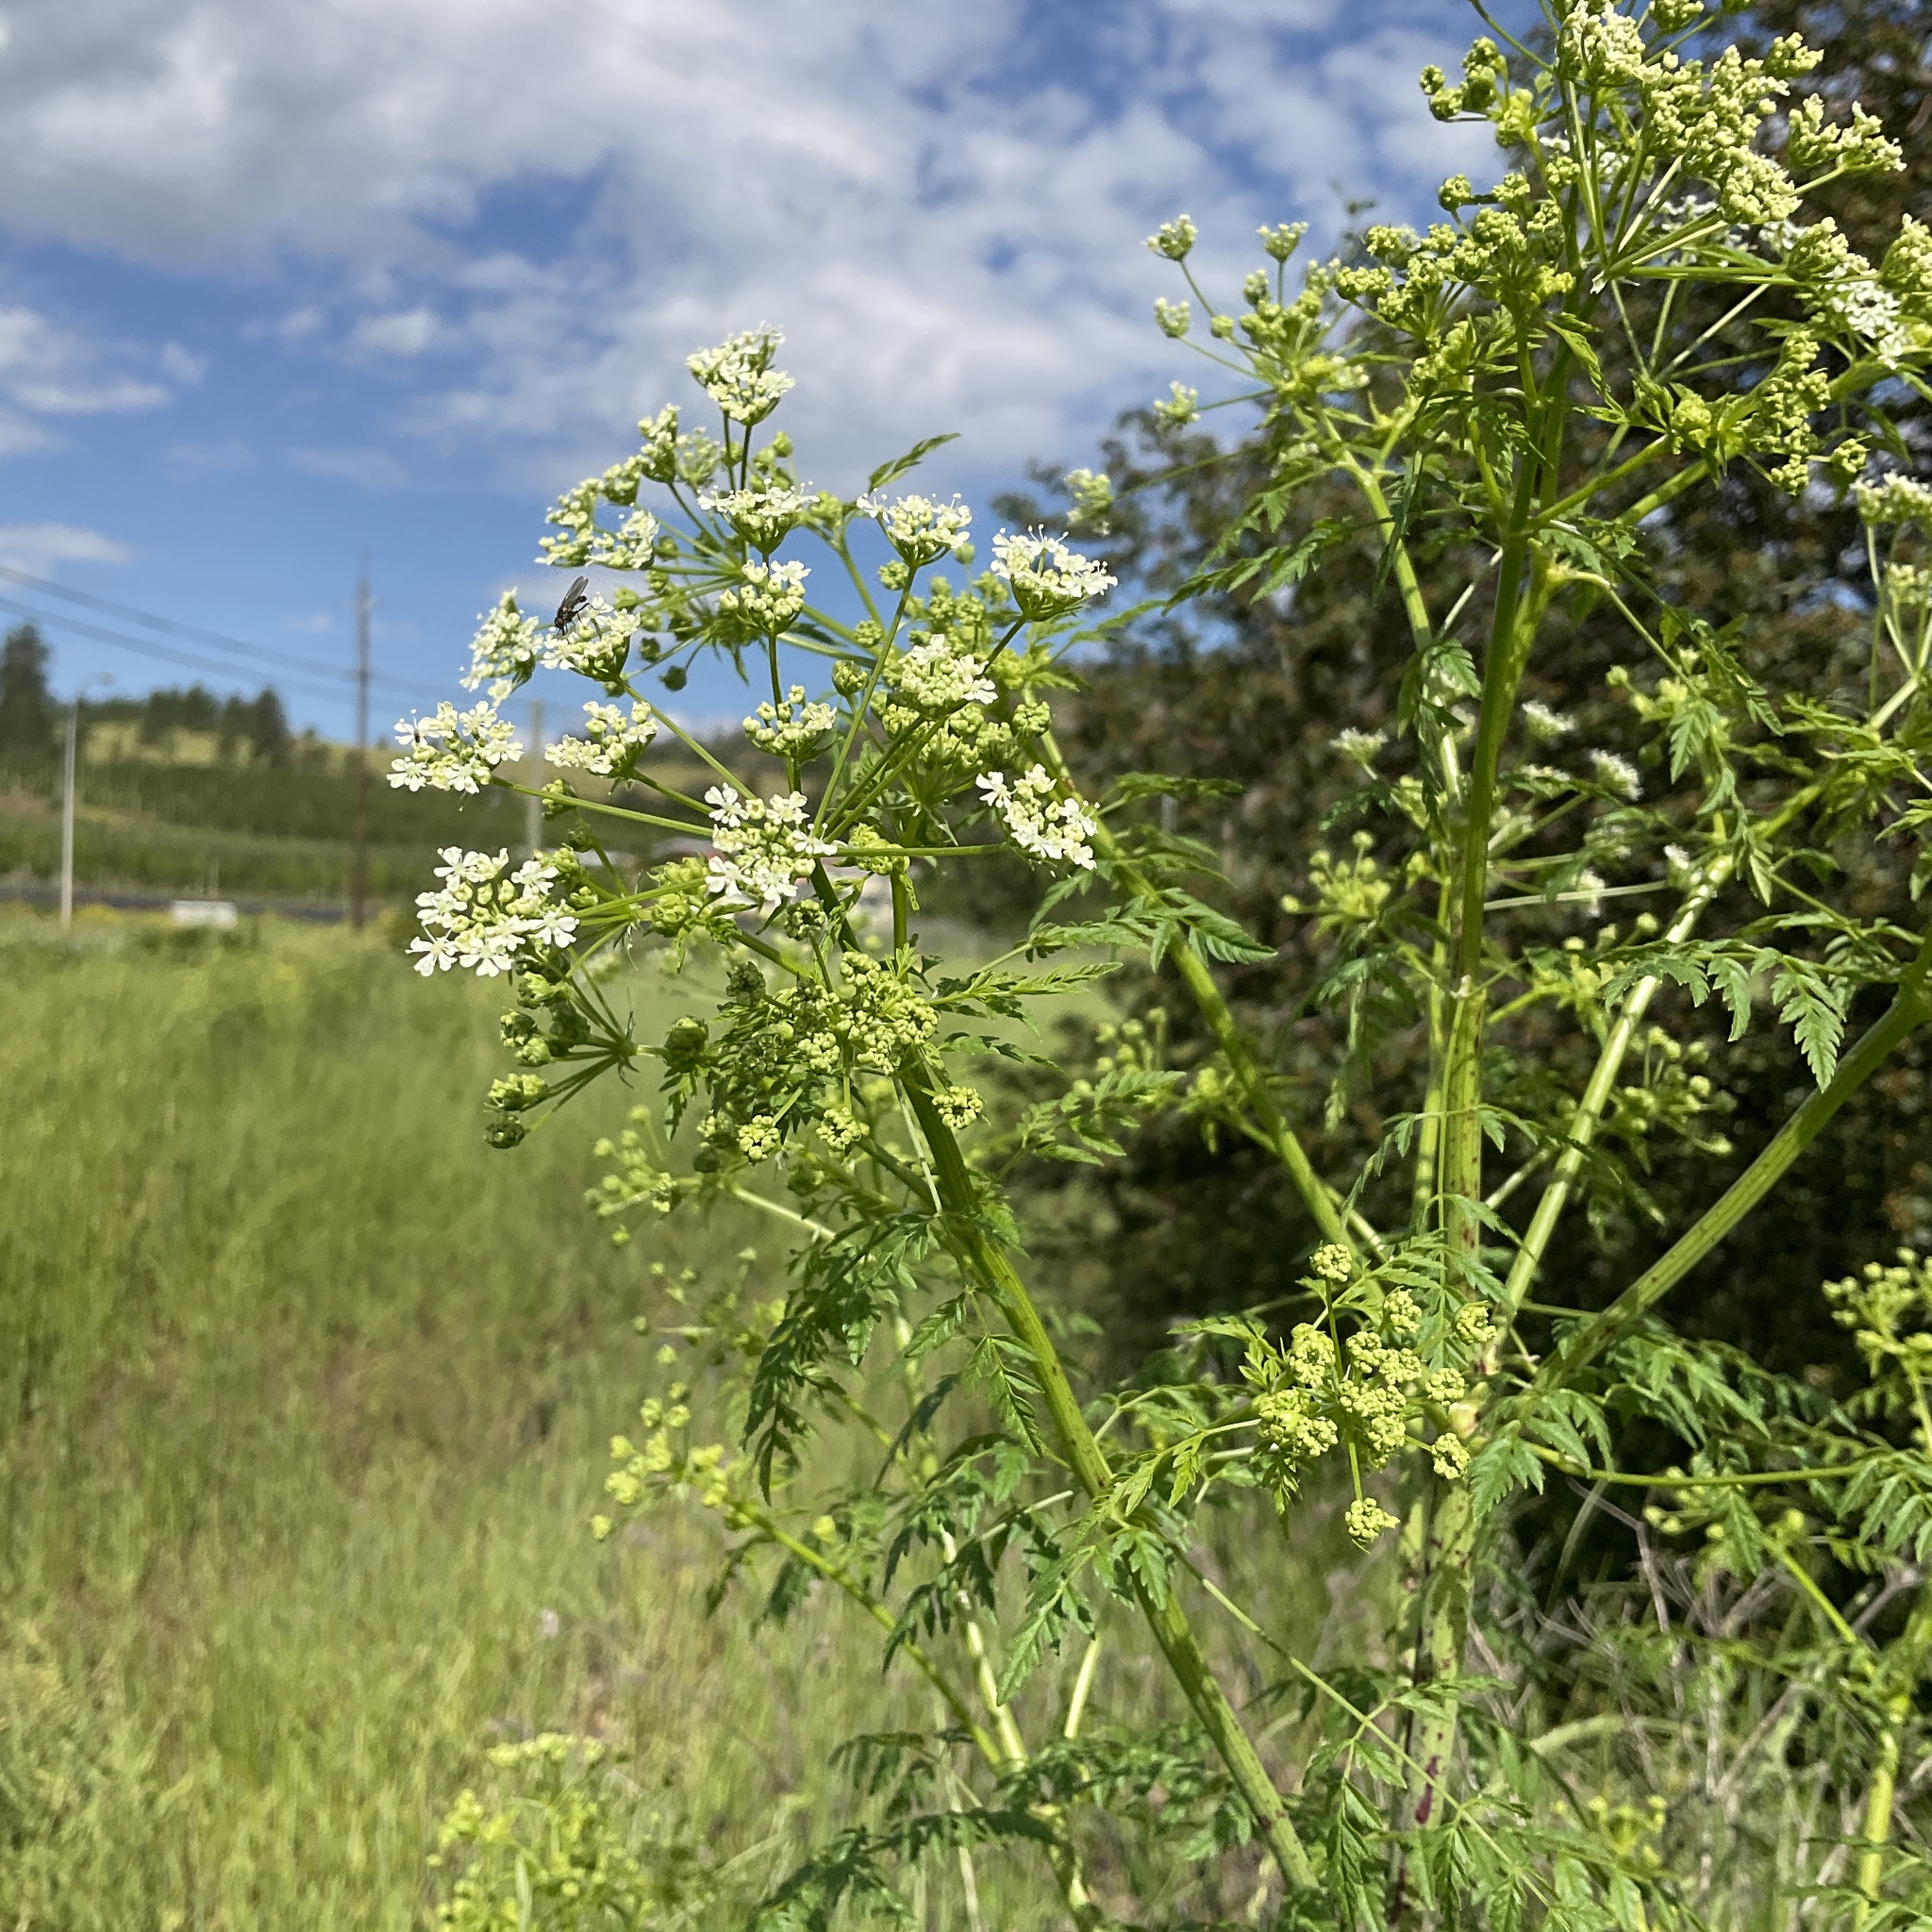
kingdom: Plantae
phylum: Tracheophyta
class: Magnoliopsida
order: Apiales
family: Apiaceae
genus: Conium
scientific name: Conium maculatum
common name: Hemlock
